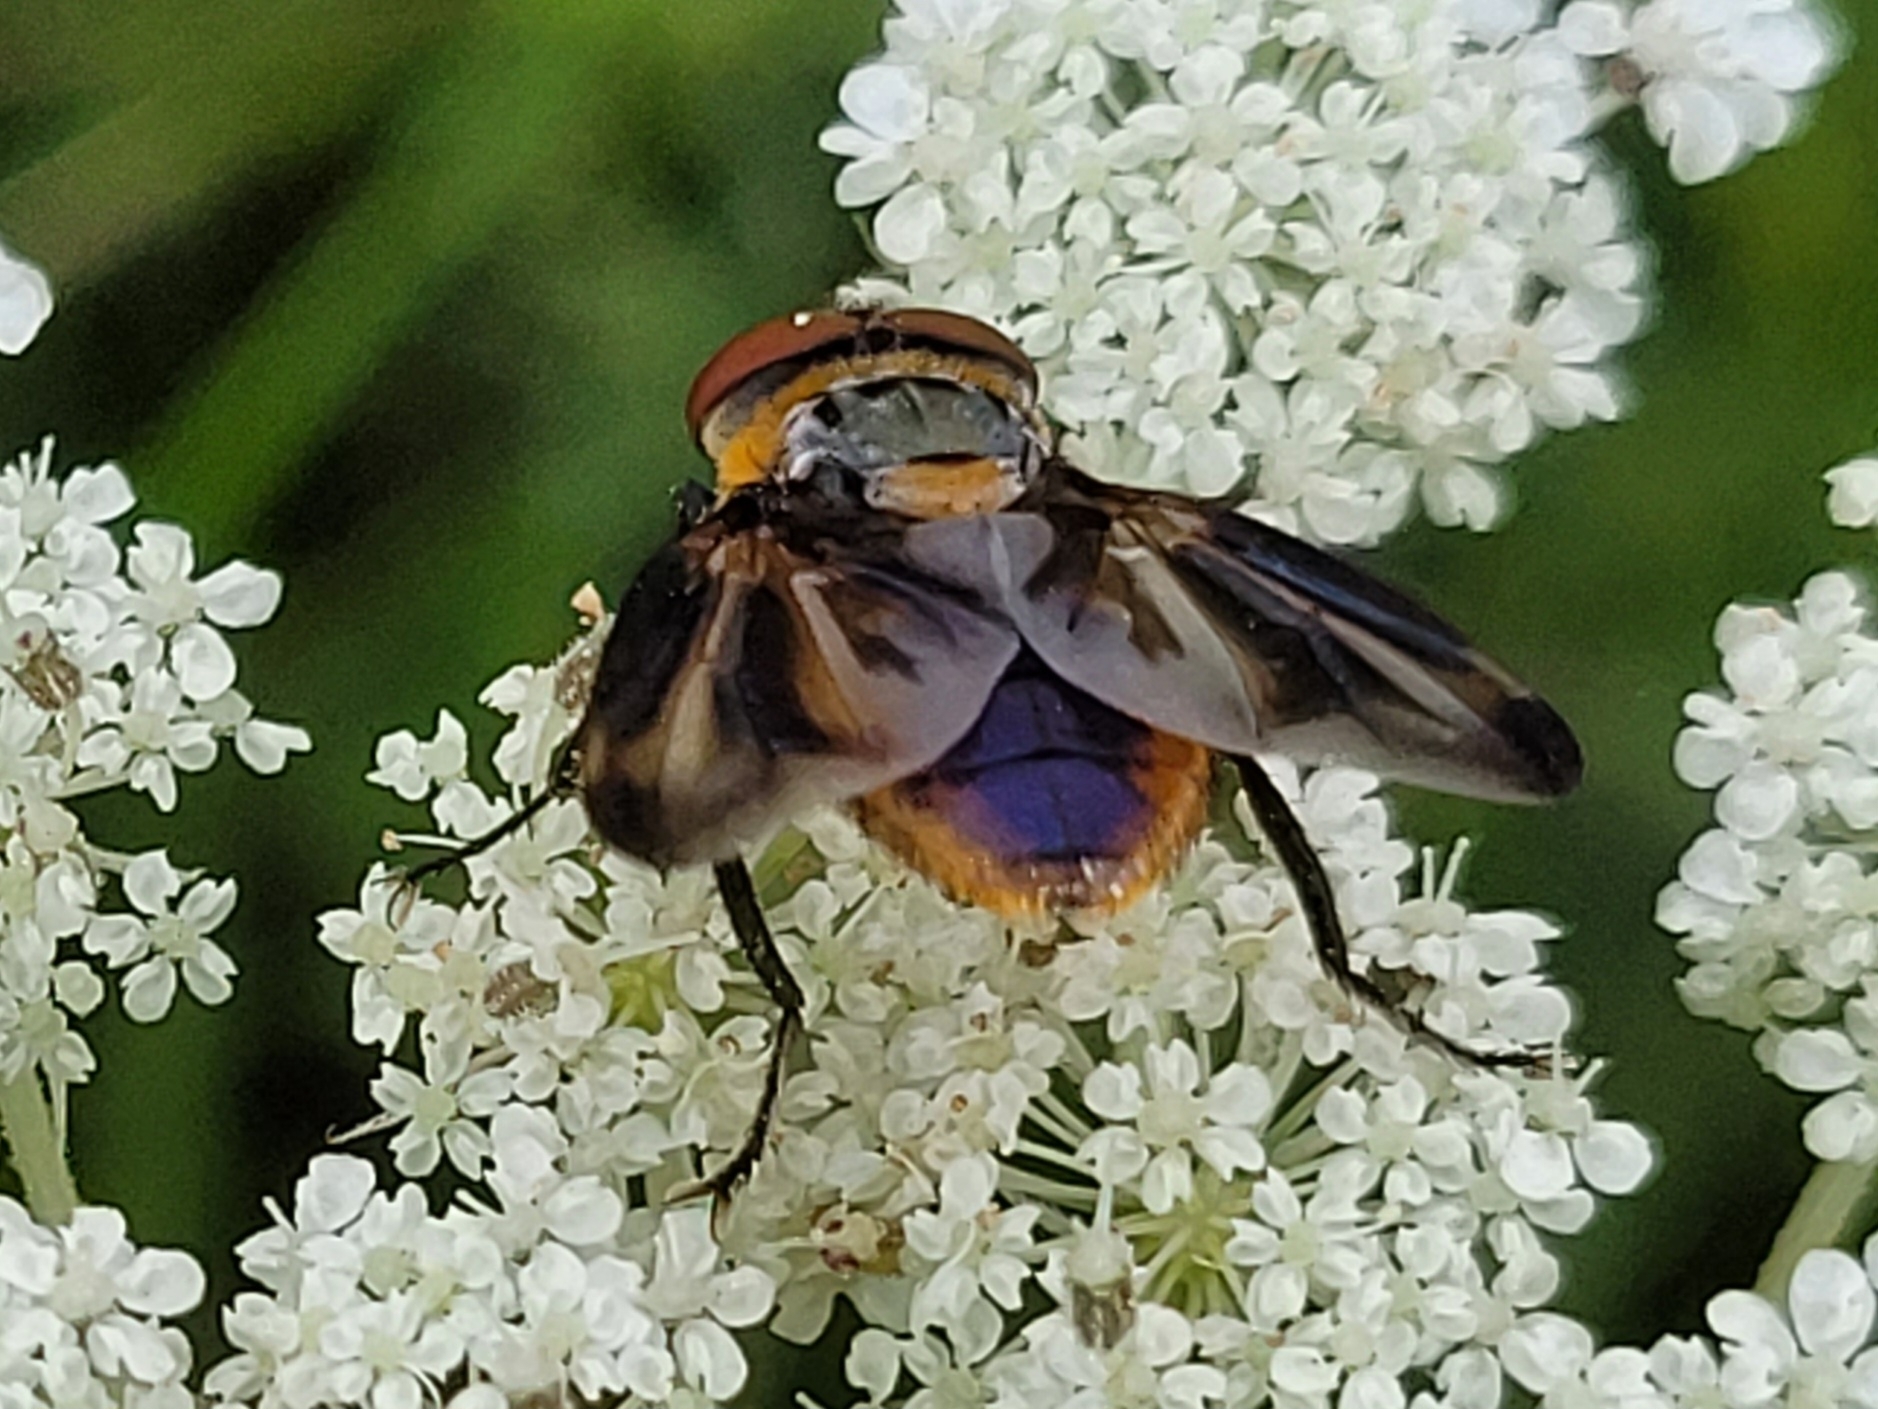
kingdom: Animalia
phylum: Arthropoda
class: Insecta
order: Diptera
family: Tachinidae
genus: Phasia
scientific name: Phasia hemiptera
